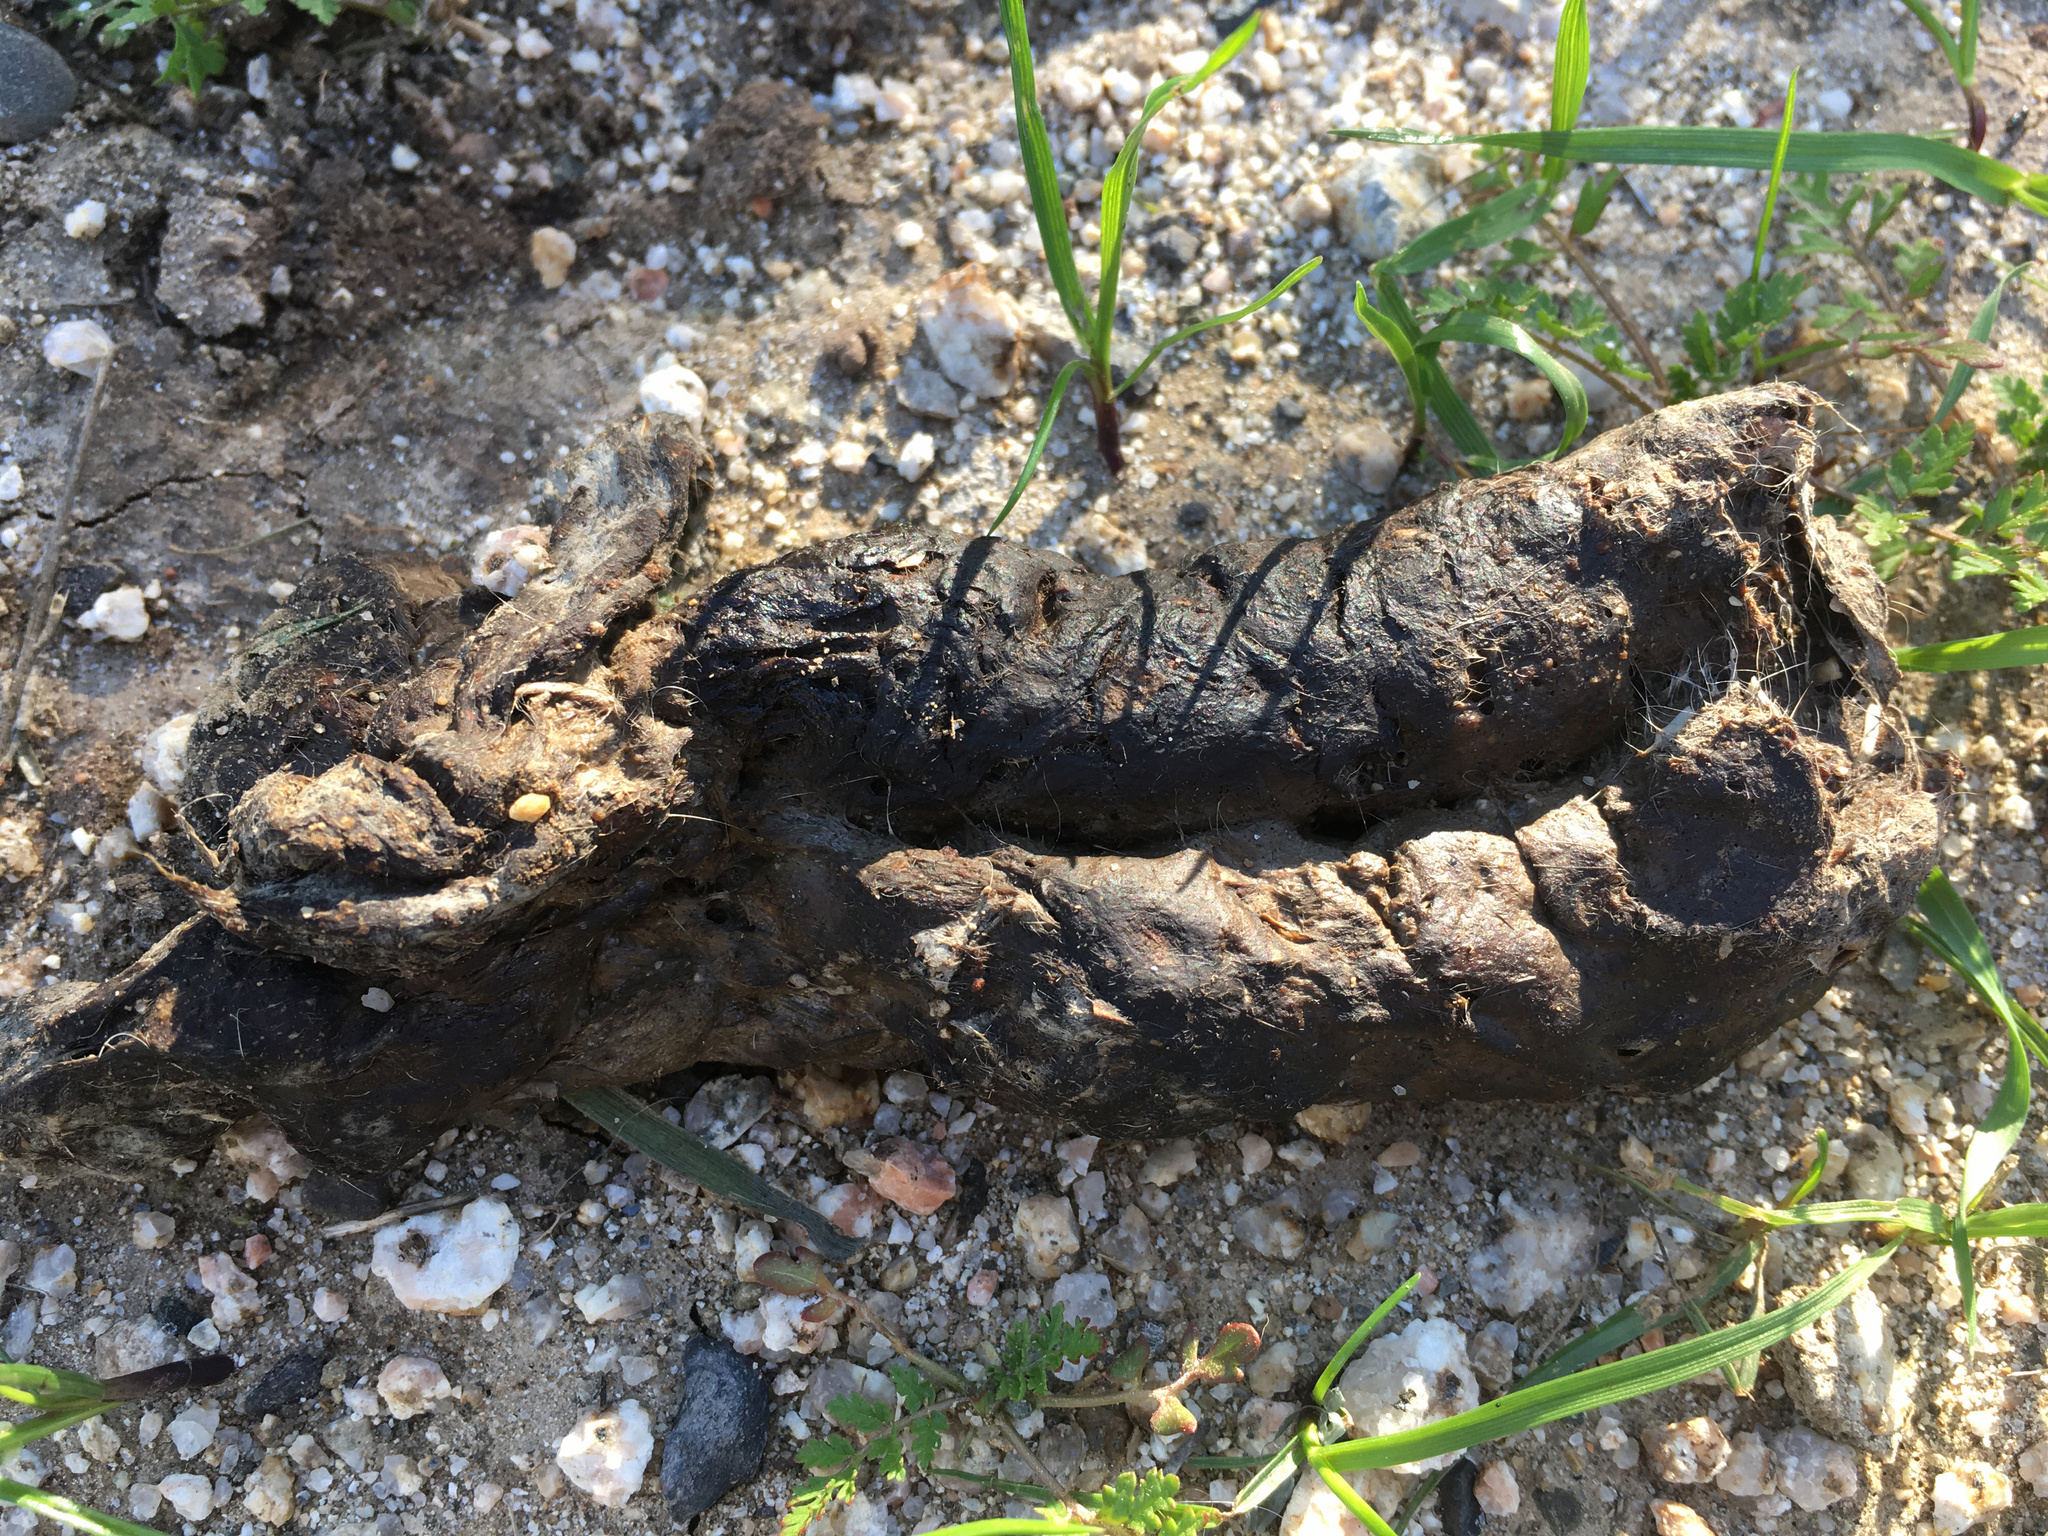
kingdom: Animalia
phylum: Chordata
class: Mammalia
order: Carnivora
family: Canidae
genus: Canis
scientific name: Canis latrans
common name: Coyote
